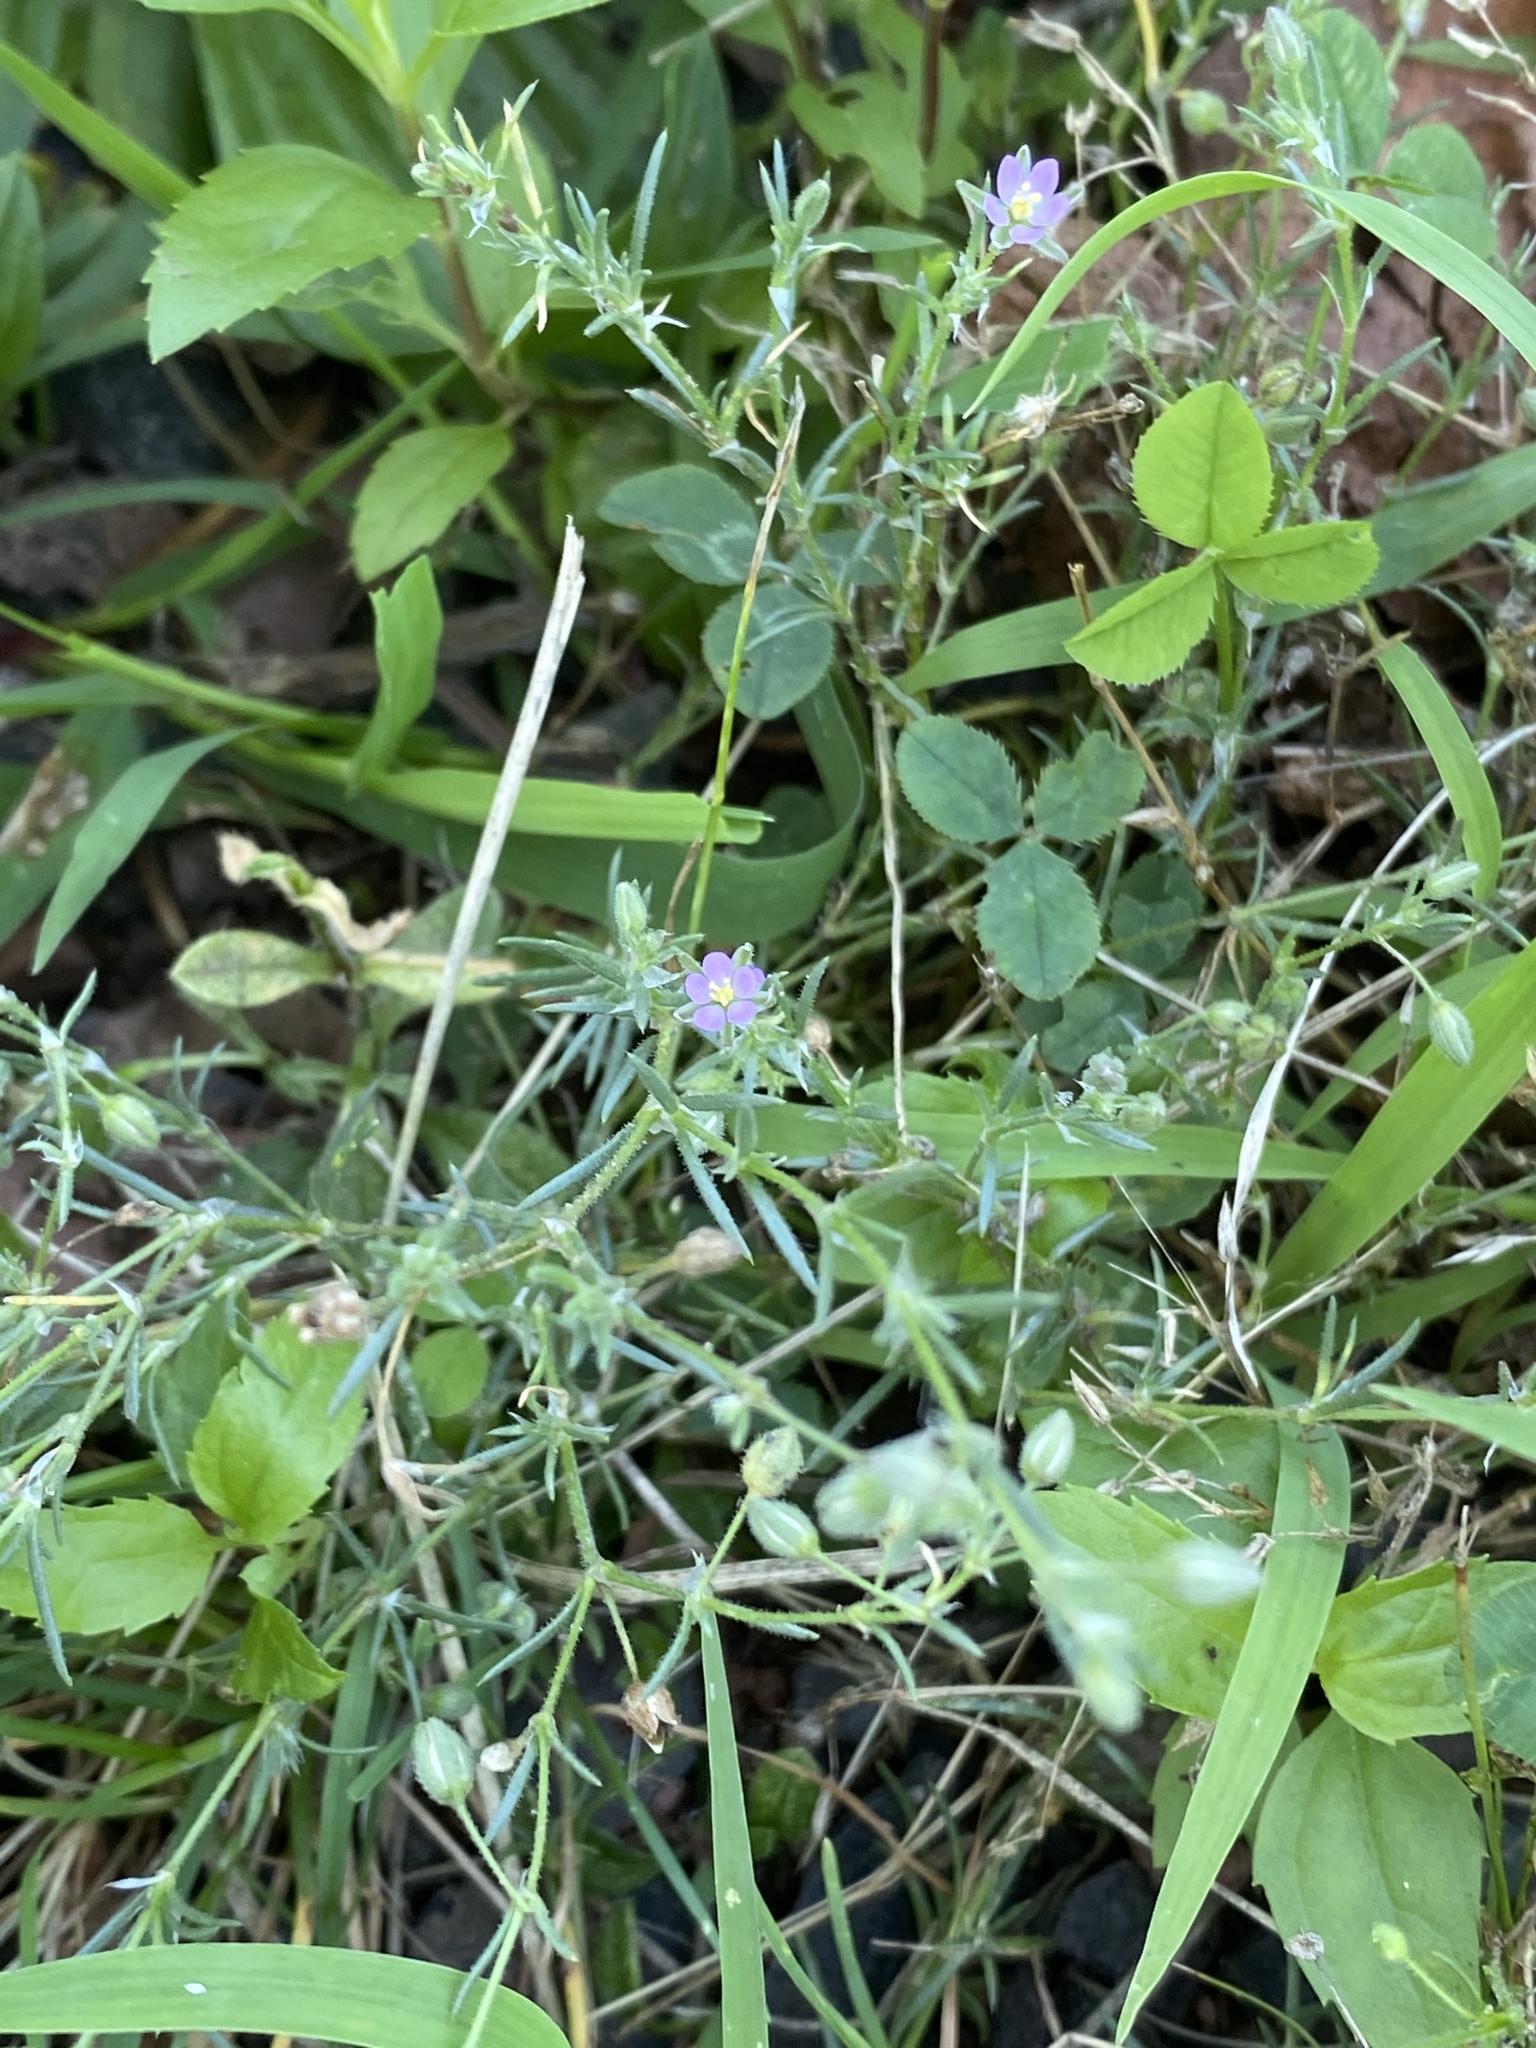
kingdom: Plantae
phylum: Tracheophyta
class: Magnoliopsida
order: Caryophyllales
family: Caryophyllaceae
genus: Spergularia
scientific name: Spergularia rubra
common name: Red sand-spurrey
